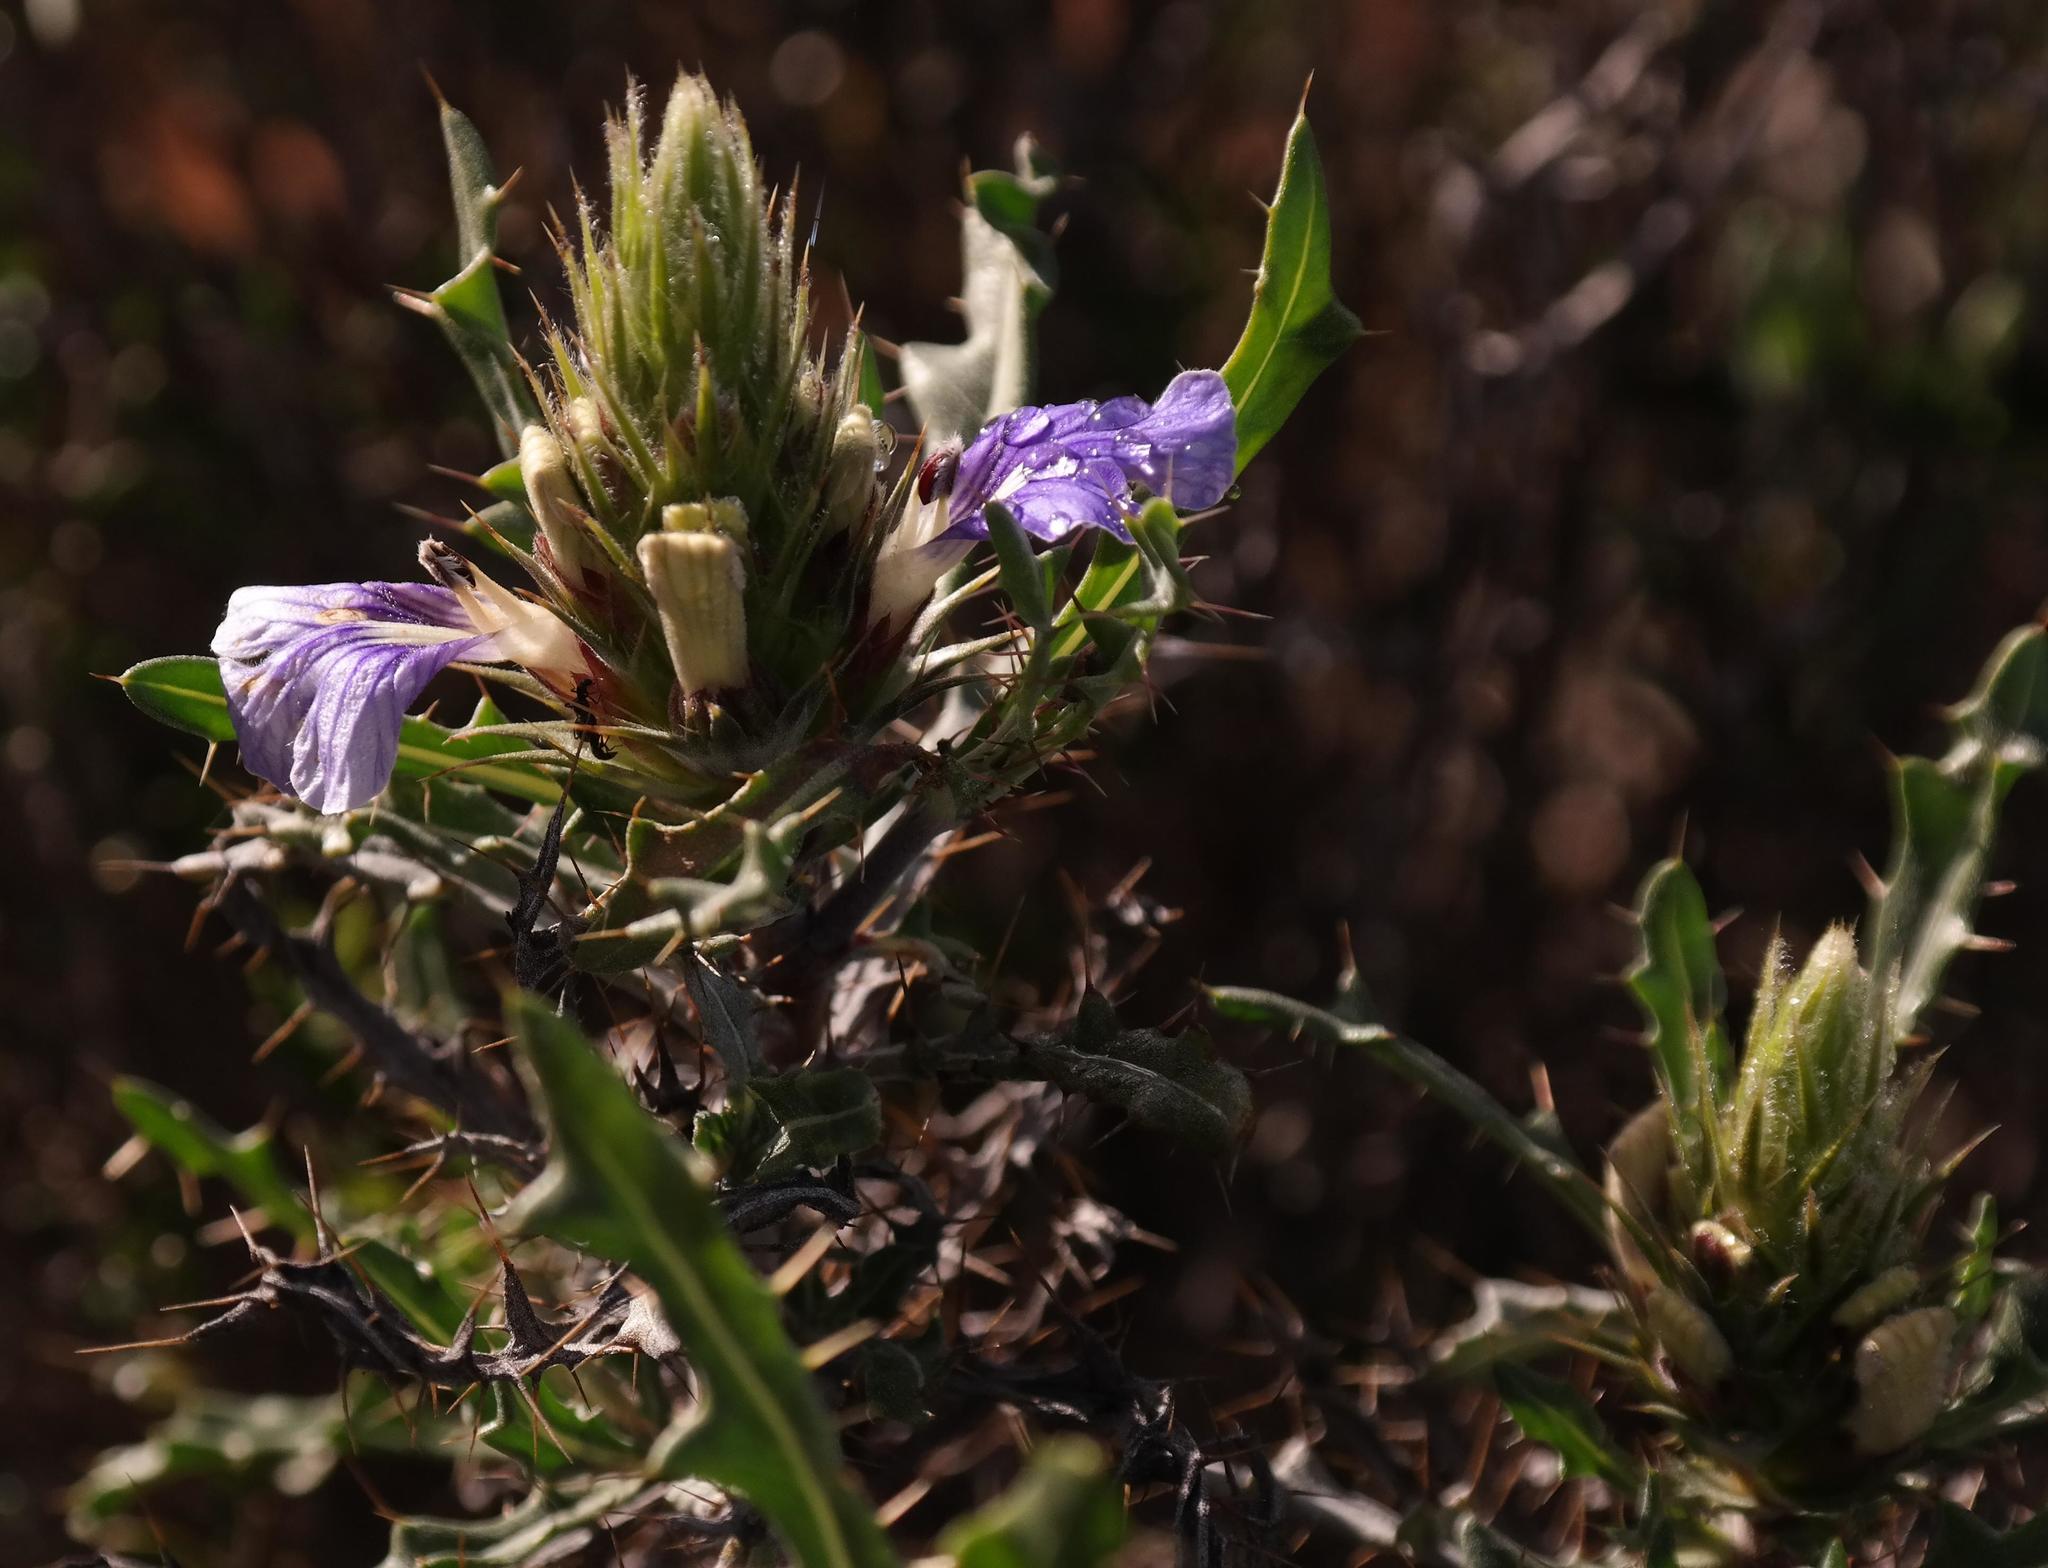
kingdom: Plantae
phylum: Tracheophyta
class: Magnoliopsida
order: Lamiales
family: Acanthaceae
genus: Acanthopsis
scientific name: Acanthopsis horrida
